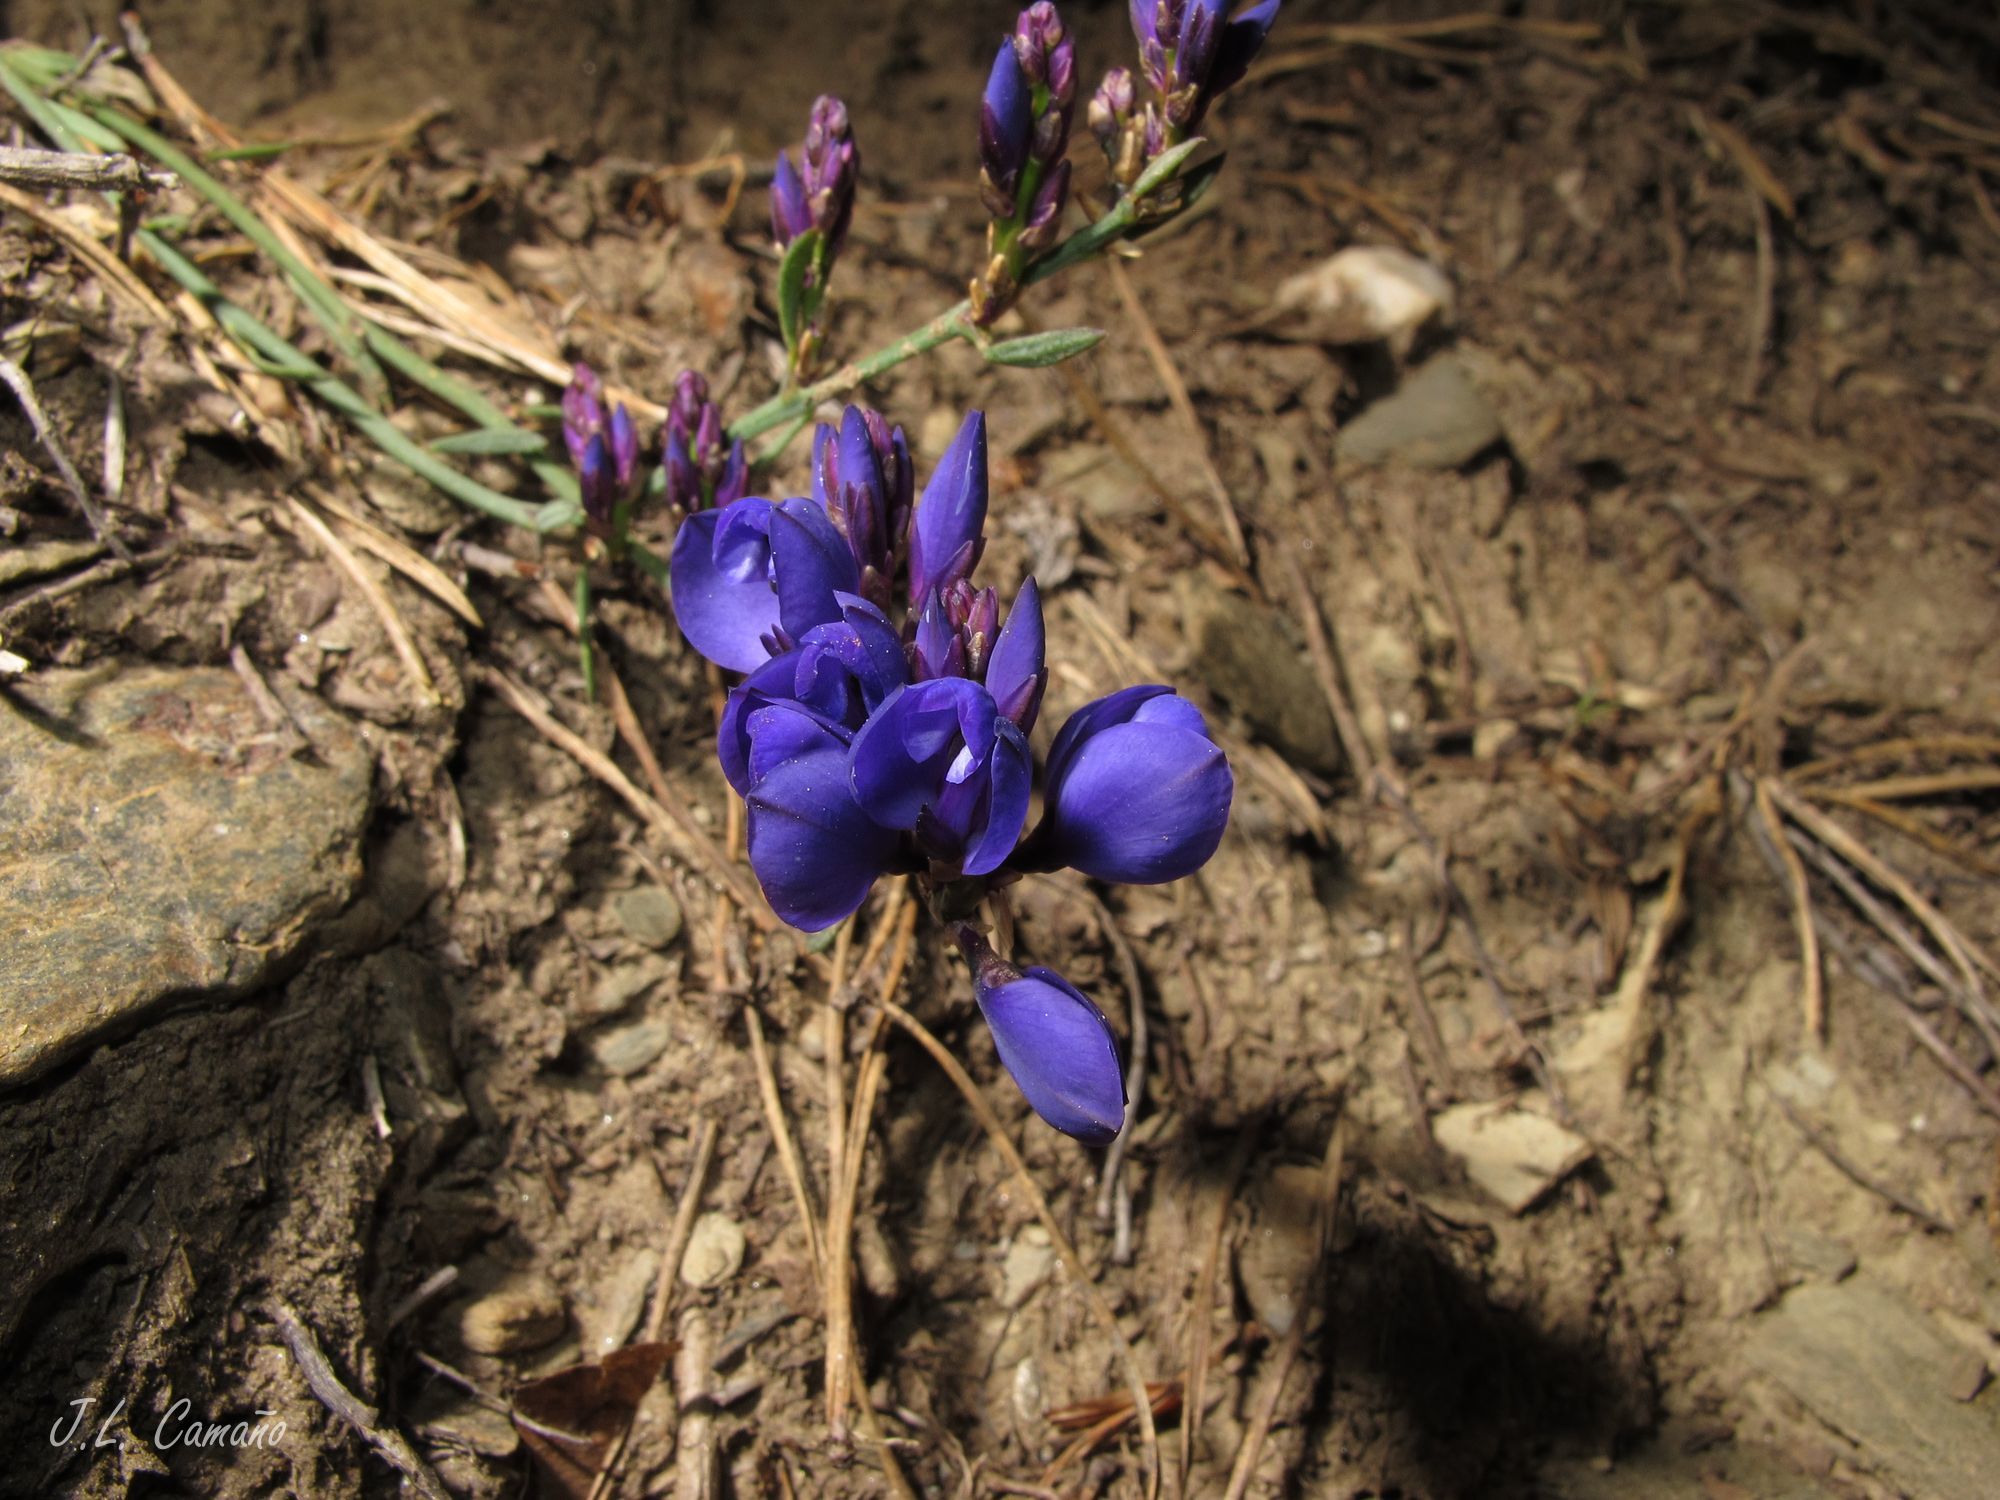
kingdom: Plantae
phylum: Tracheophyta
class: Magnoliopsida
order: Fabales
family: Polygalaceae
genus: Polygala
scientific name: Polygala microphylla
